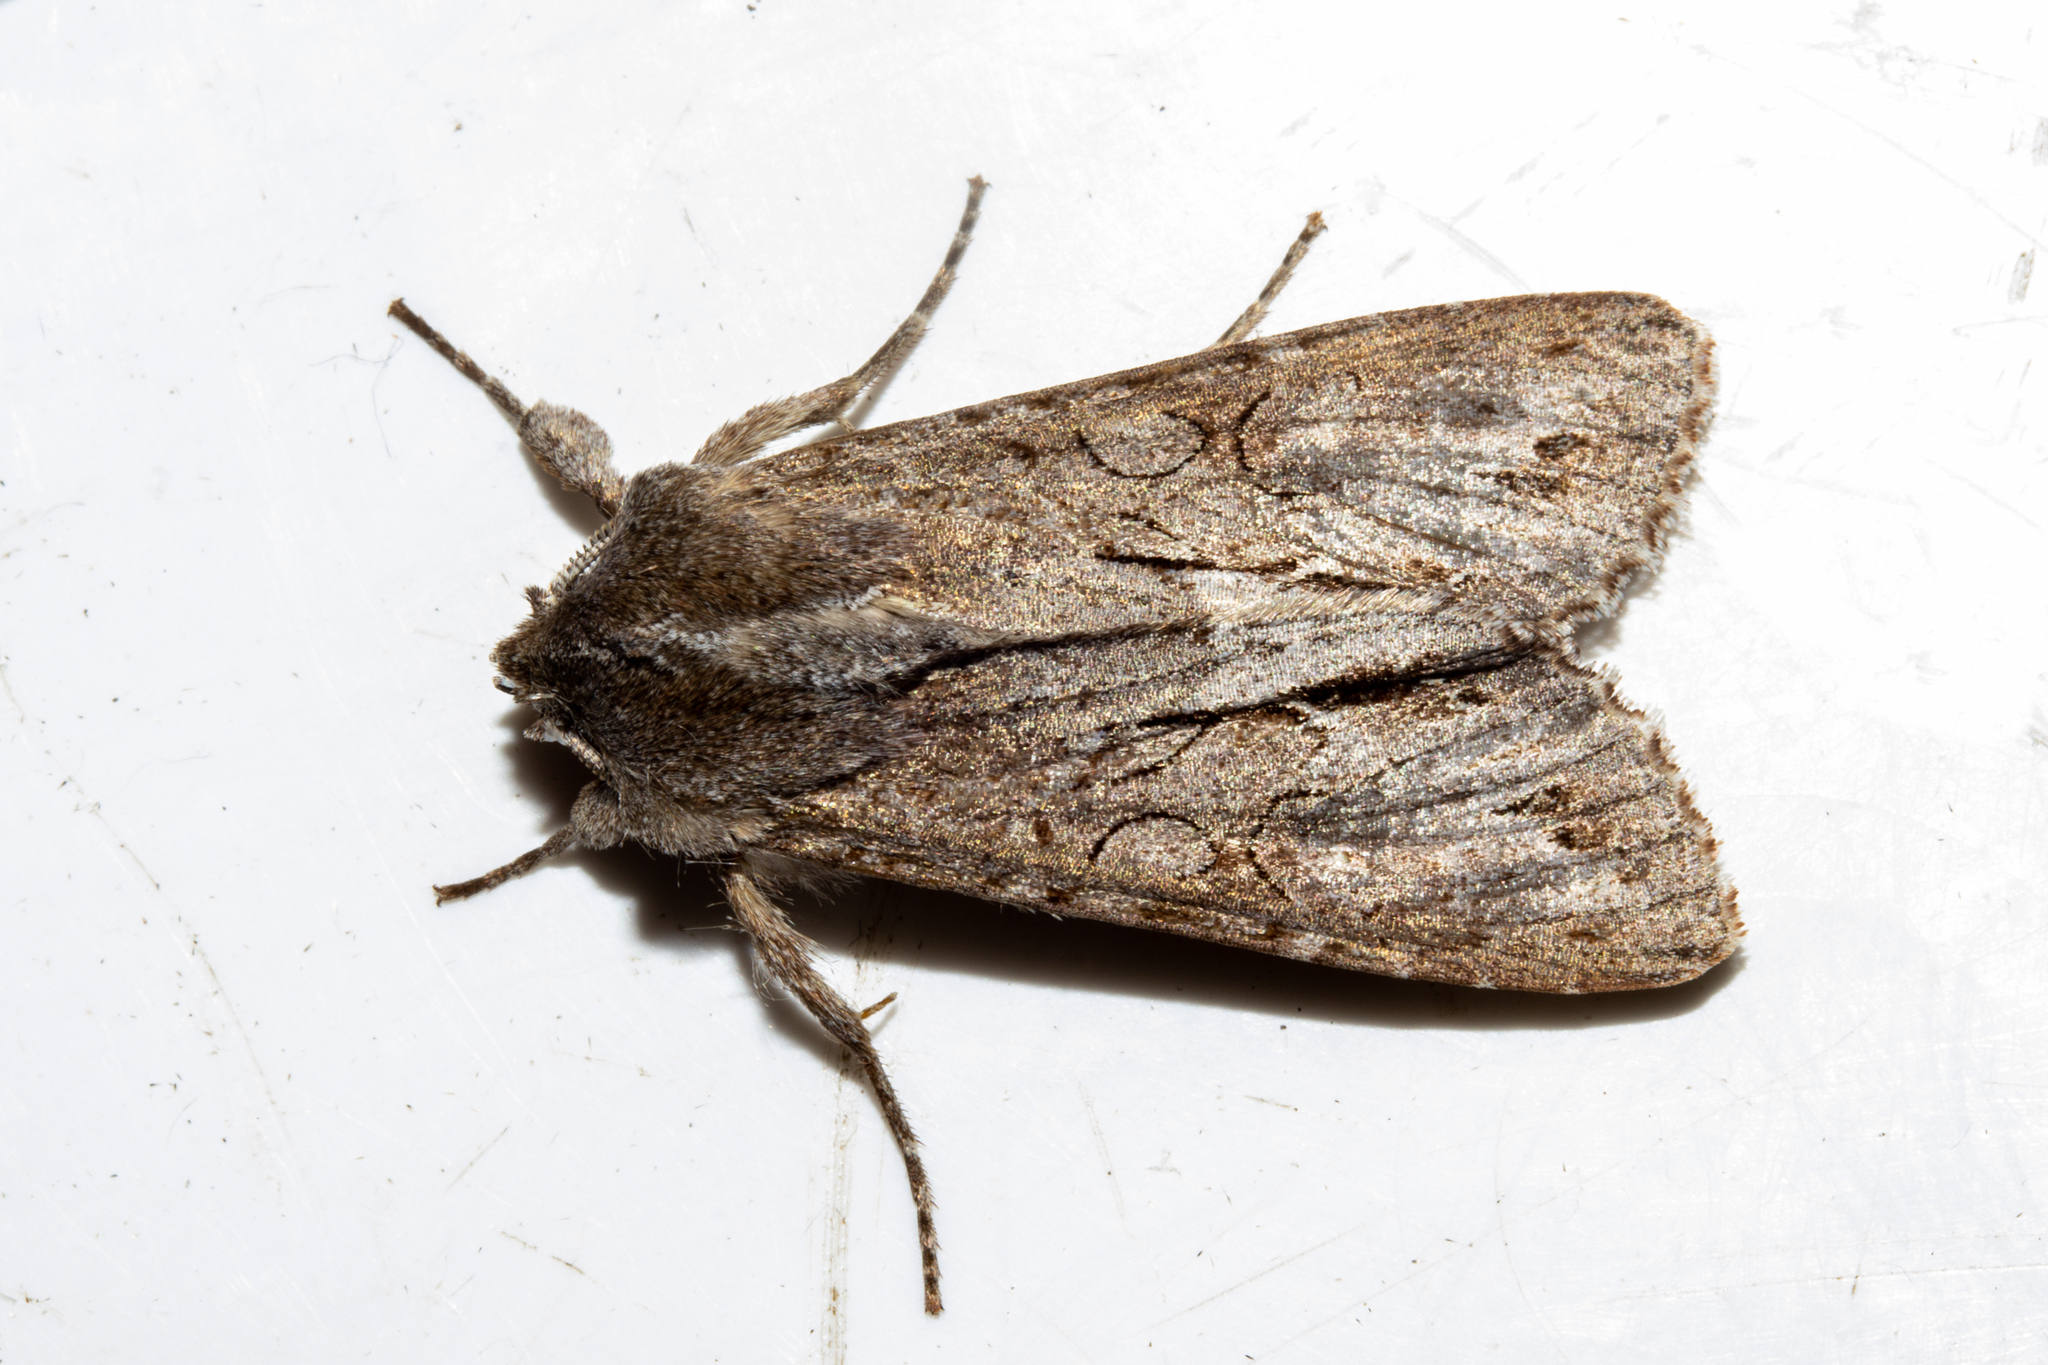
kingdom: Animalia
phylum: Arthropoda
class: Insecta
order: Lepidoptera
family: Noctuidae
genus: Ichneutica
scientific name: Ichneutica
